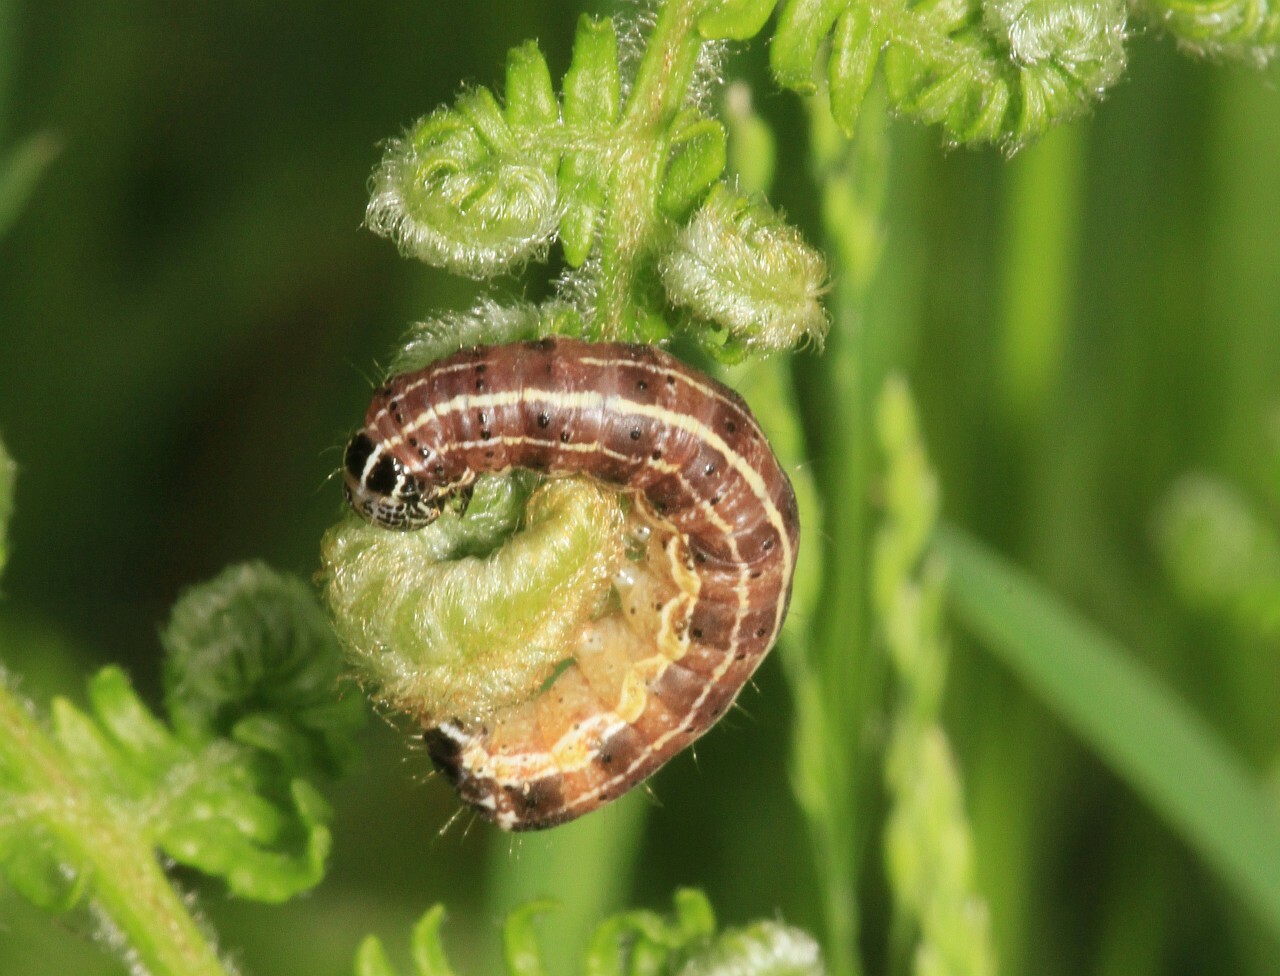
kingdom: Animalia
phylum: Arthropoda
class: Insecta
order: Lepidoptera
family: Noctuidae
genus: Orthosia
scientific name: Orthosia cruda
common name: Small quaker
